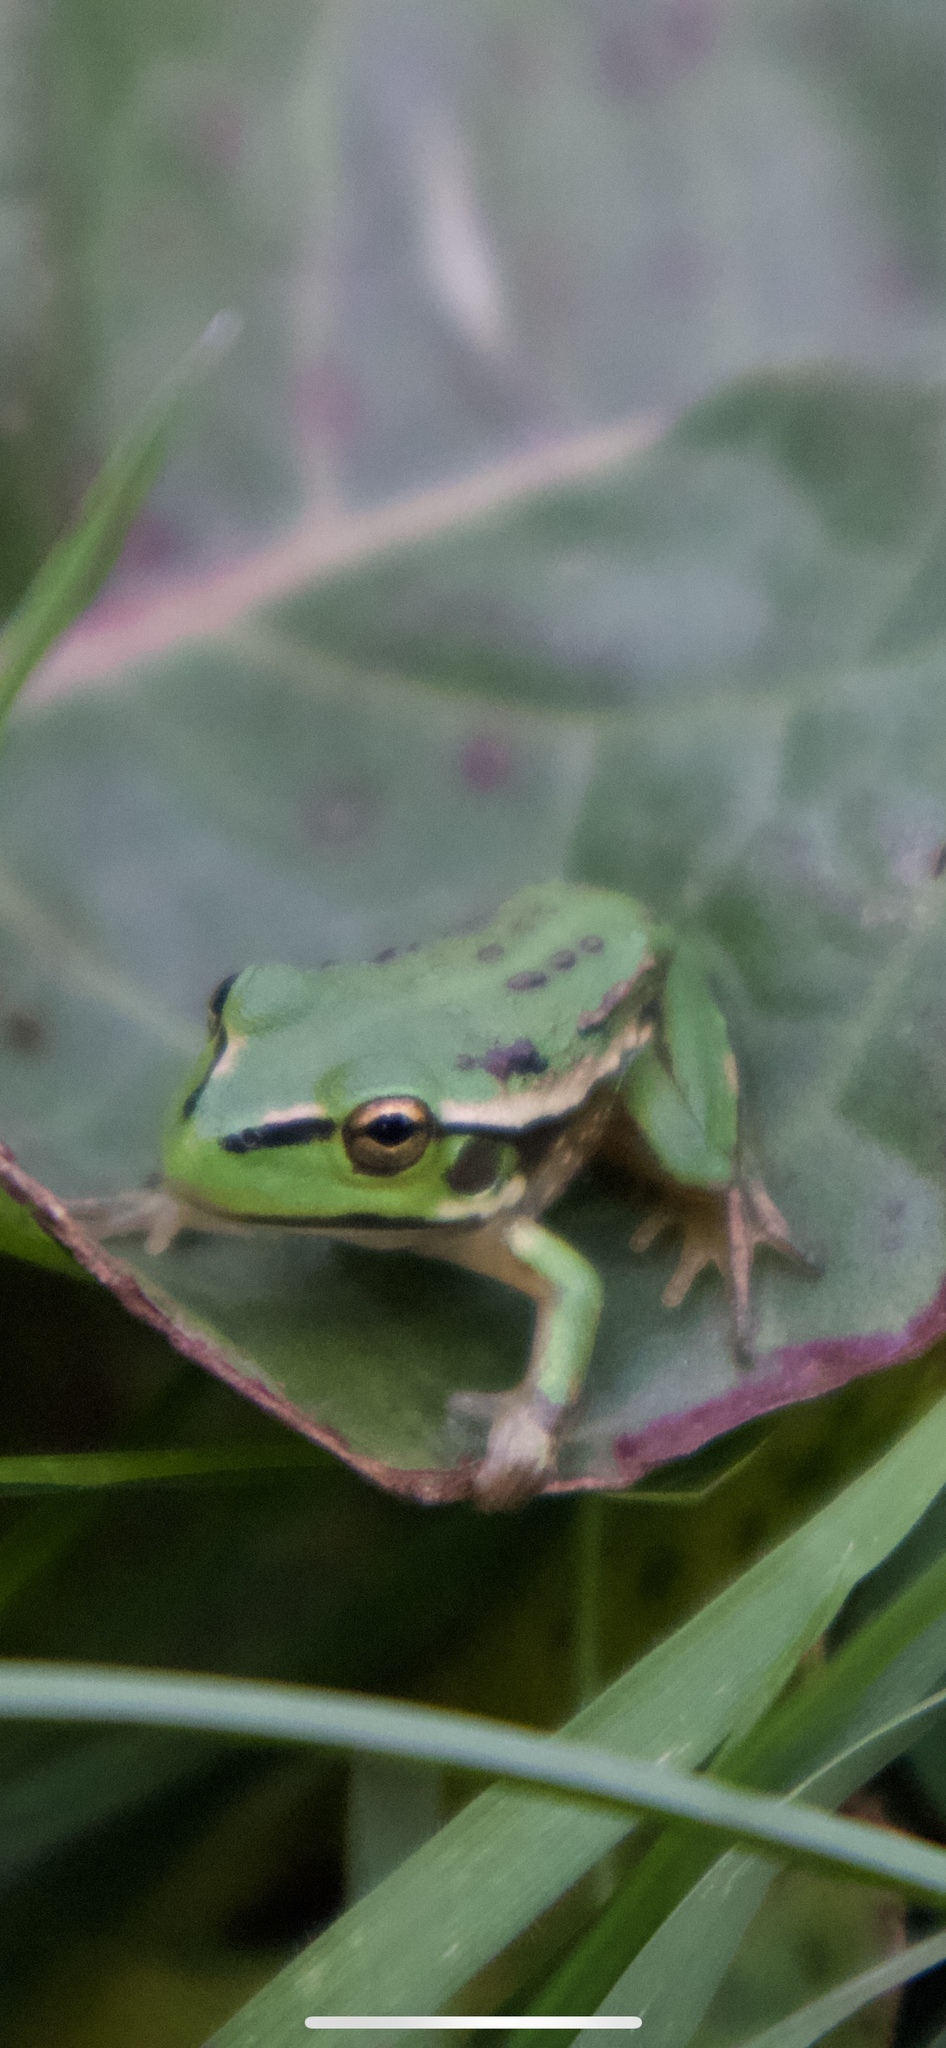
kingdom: Animalia
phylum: Chordata
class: Amphibia
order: Anura
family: Pelodryadidae
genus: Ranoidea
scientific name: Ranoidea raniformis
